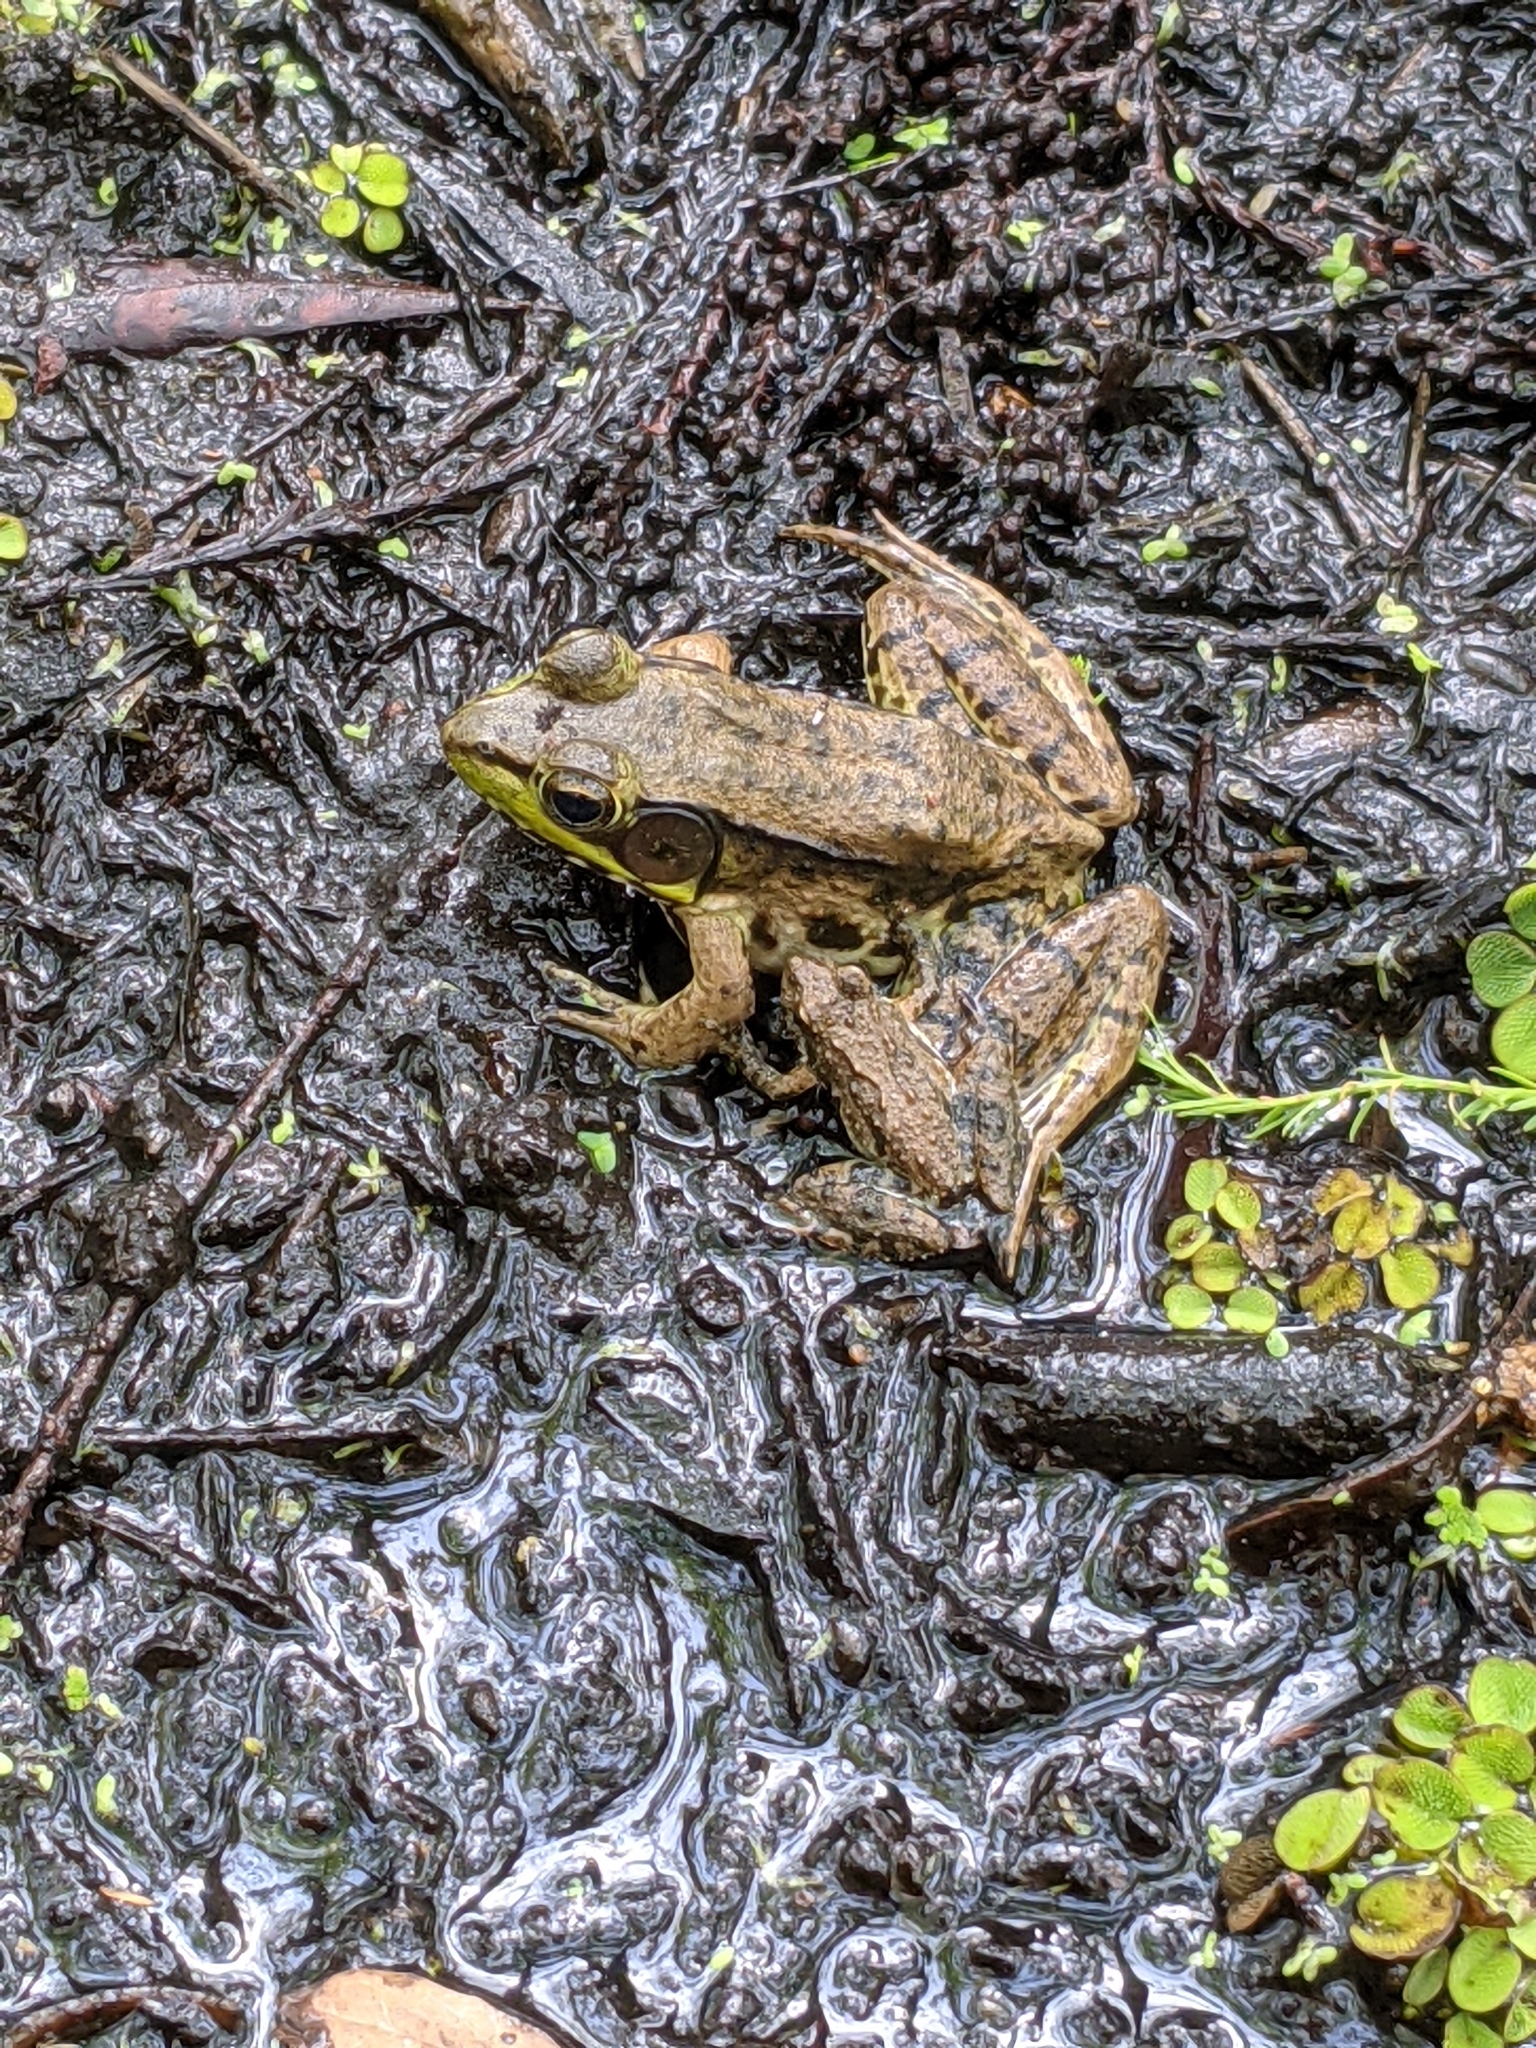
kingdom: Animalia
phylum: Chordata
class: Amphibia
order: Anura
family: Ranidae
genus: Lithobates
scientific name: Lithobates clamitans
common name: Green frog
